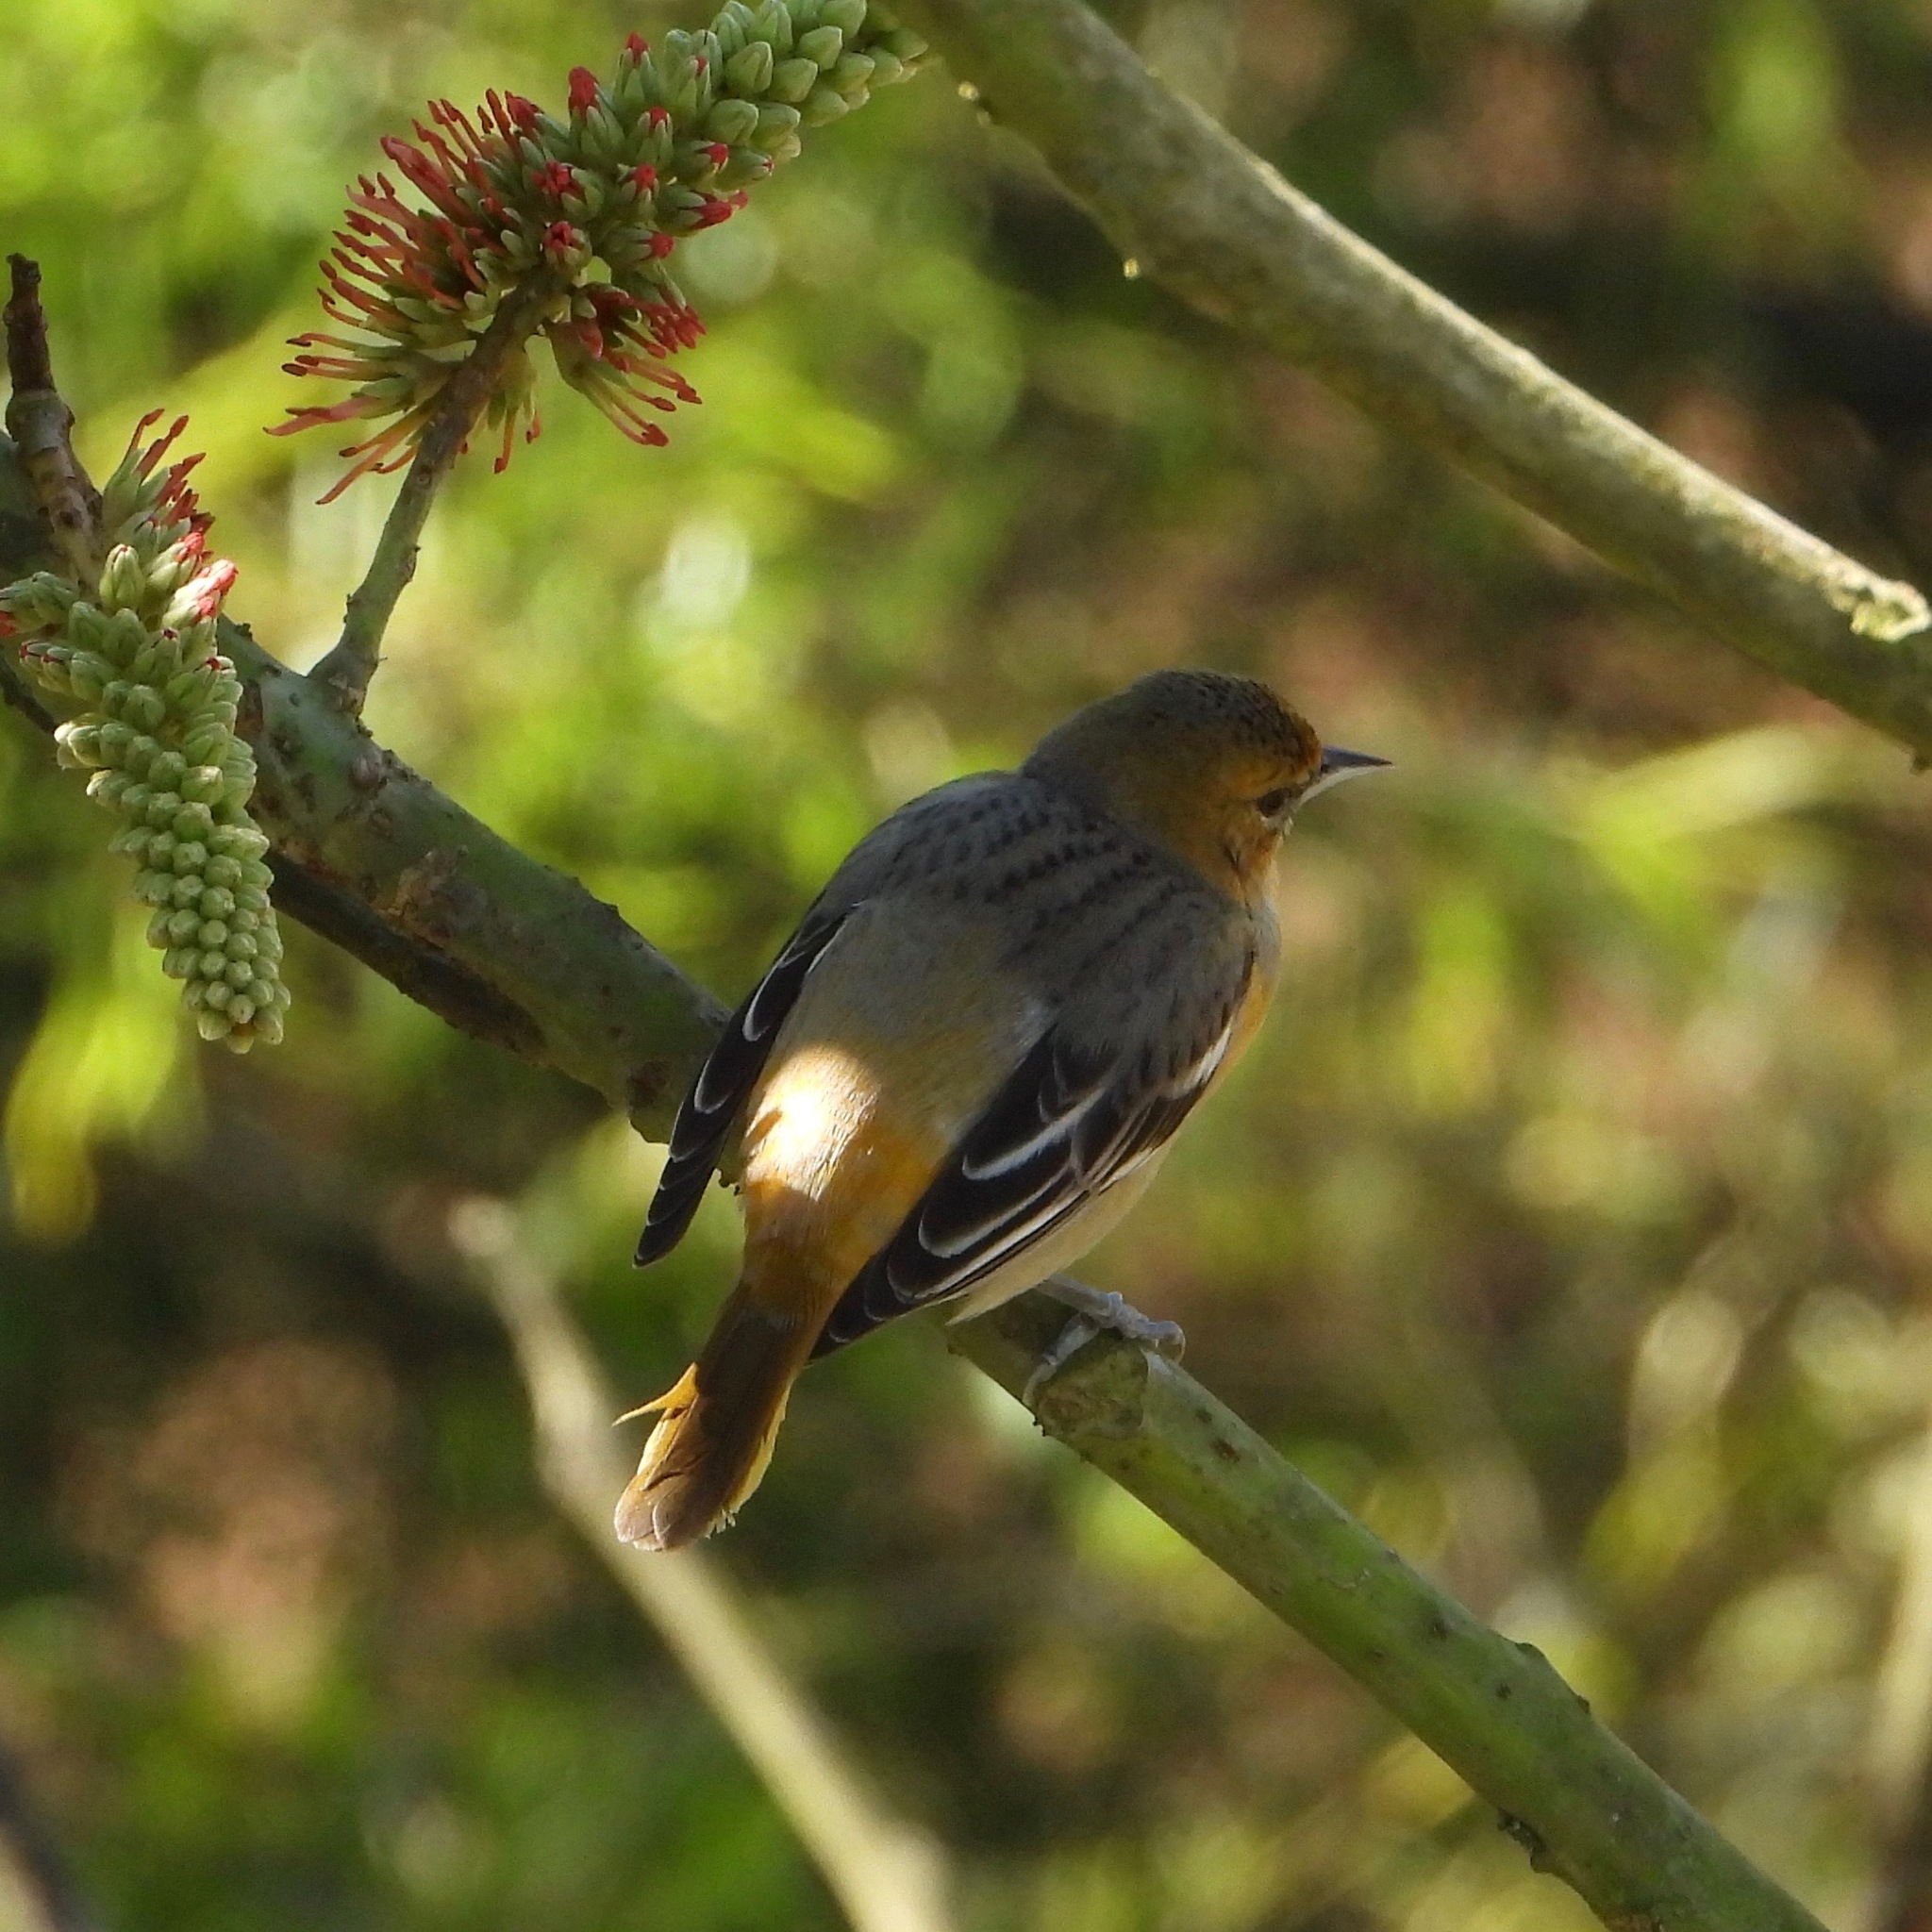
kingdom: Animalia
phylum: Chordata
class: Aves
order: Passeriformes
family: Icteridae
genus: Icterus
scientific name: Icterus galbula
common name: Baltimore oriole
